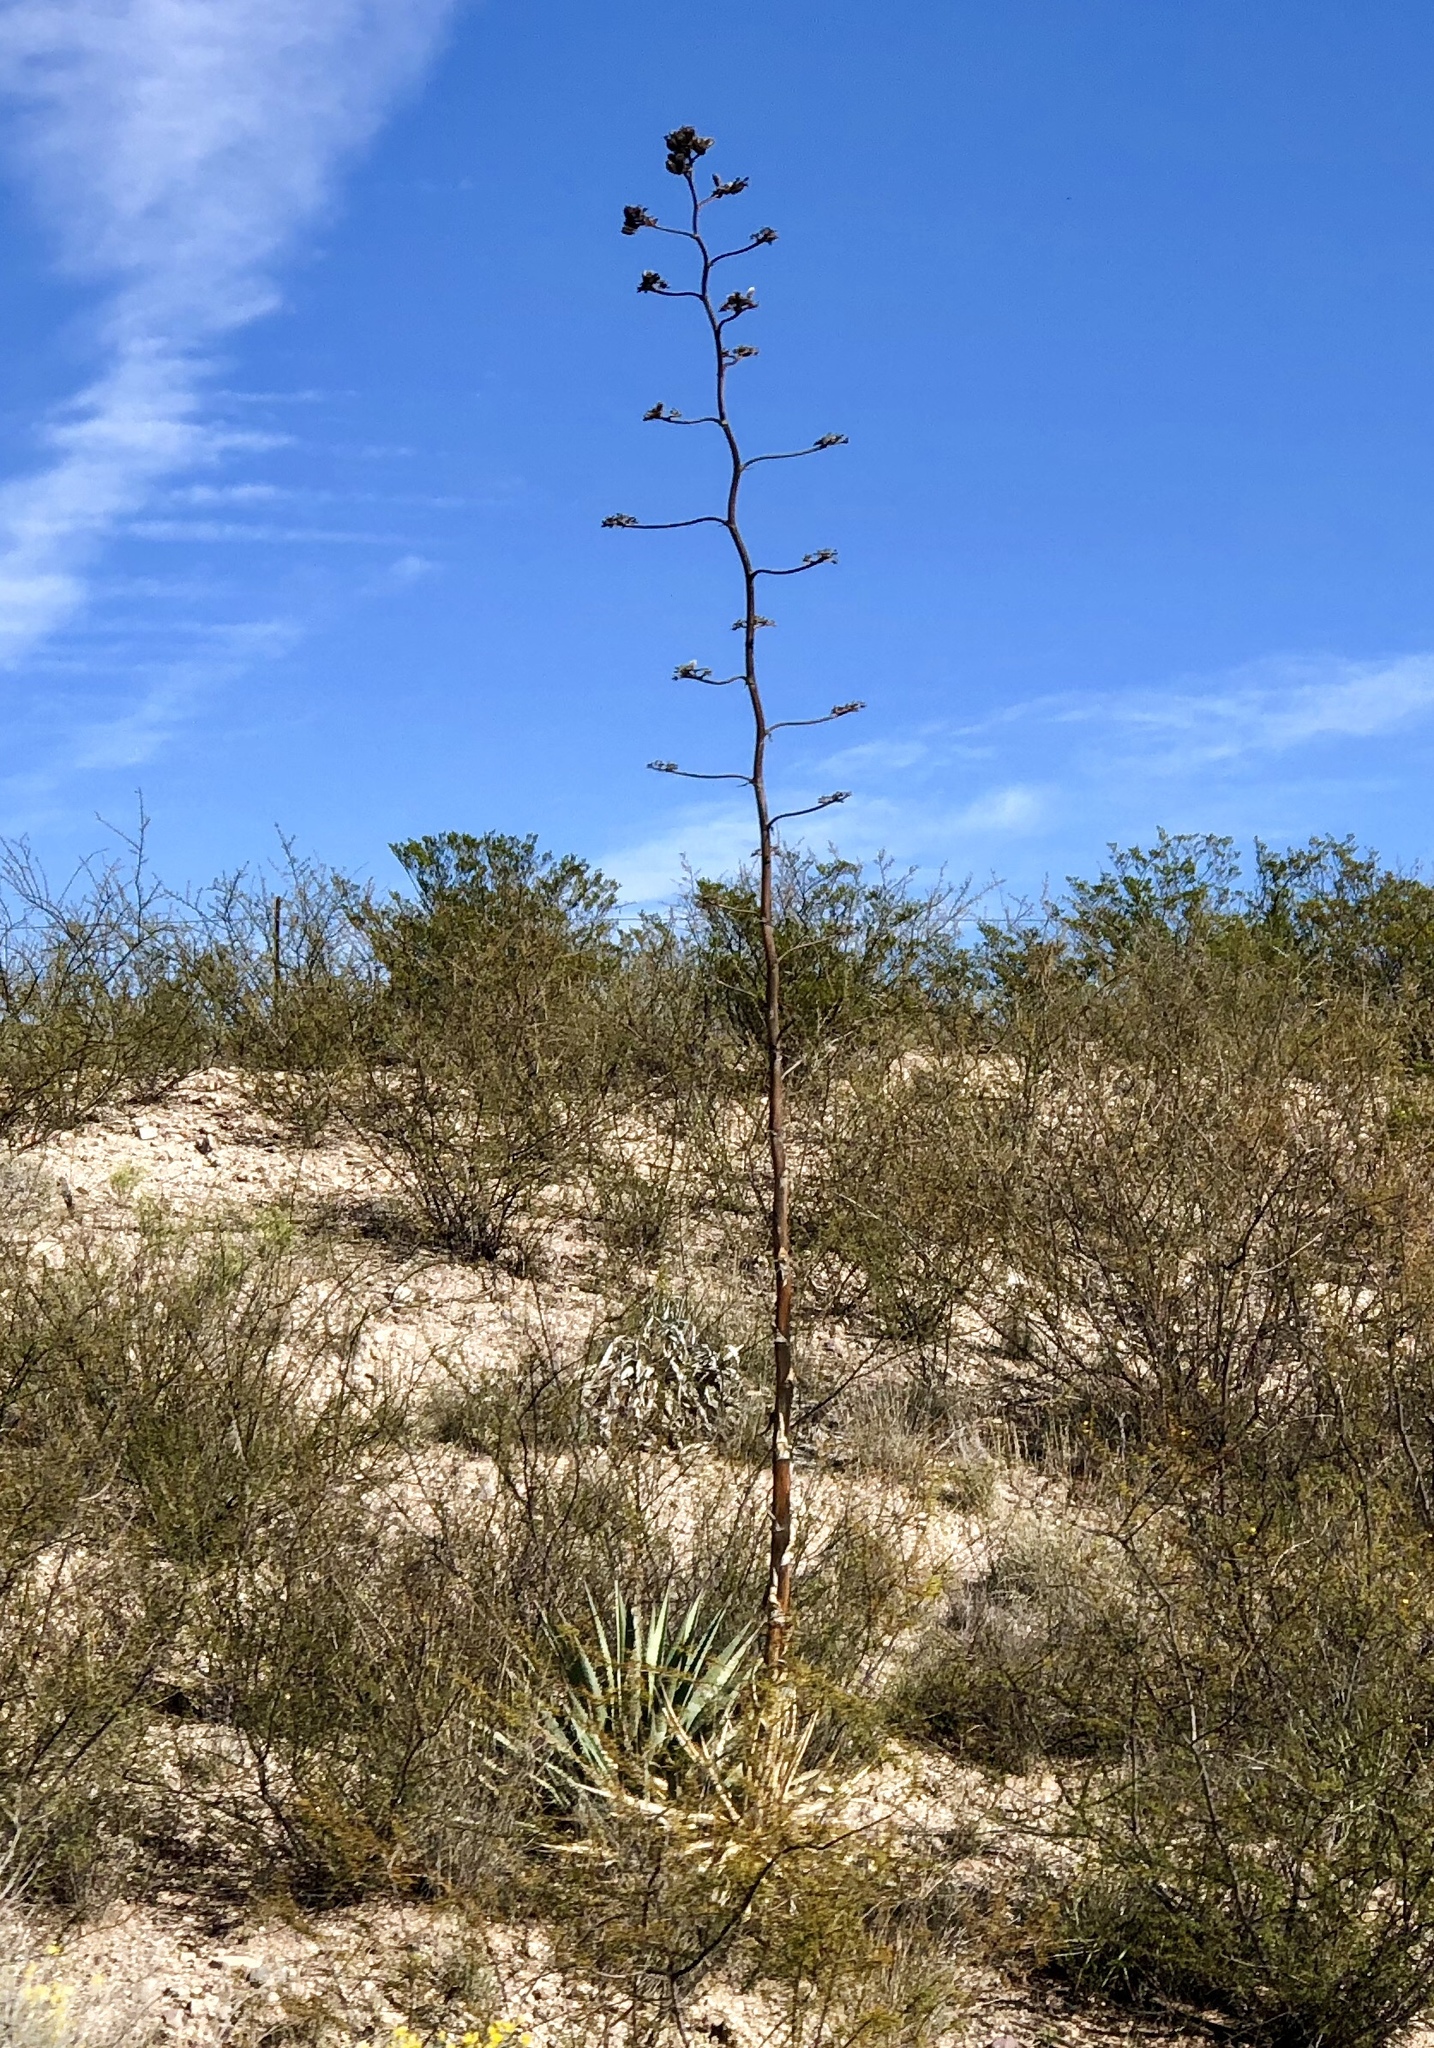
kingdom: Plantae
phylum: Tracheophyta
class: Liliopsida
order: Asparagales
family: Asparagaceae
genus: Agave
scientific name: Agave palmeri
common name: Palmer agave
